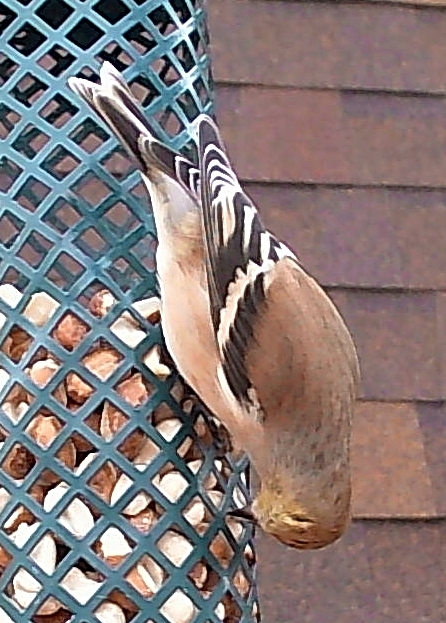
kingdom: Animalia
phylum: Chordata
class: Aves
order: Passeriformes
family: Fringillidae
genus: Spinus
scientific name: Spinus tristis
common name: American goldfinch
